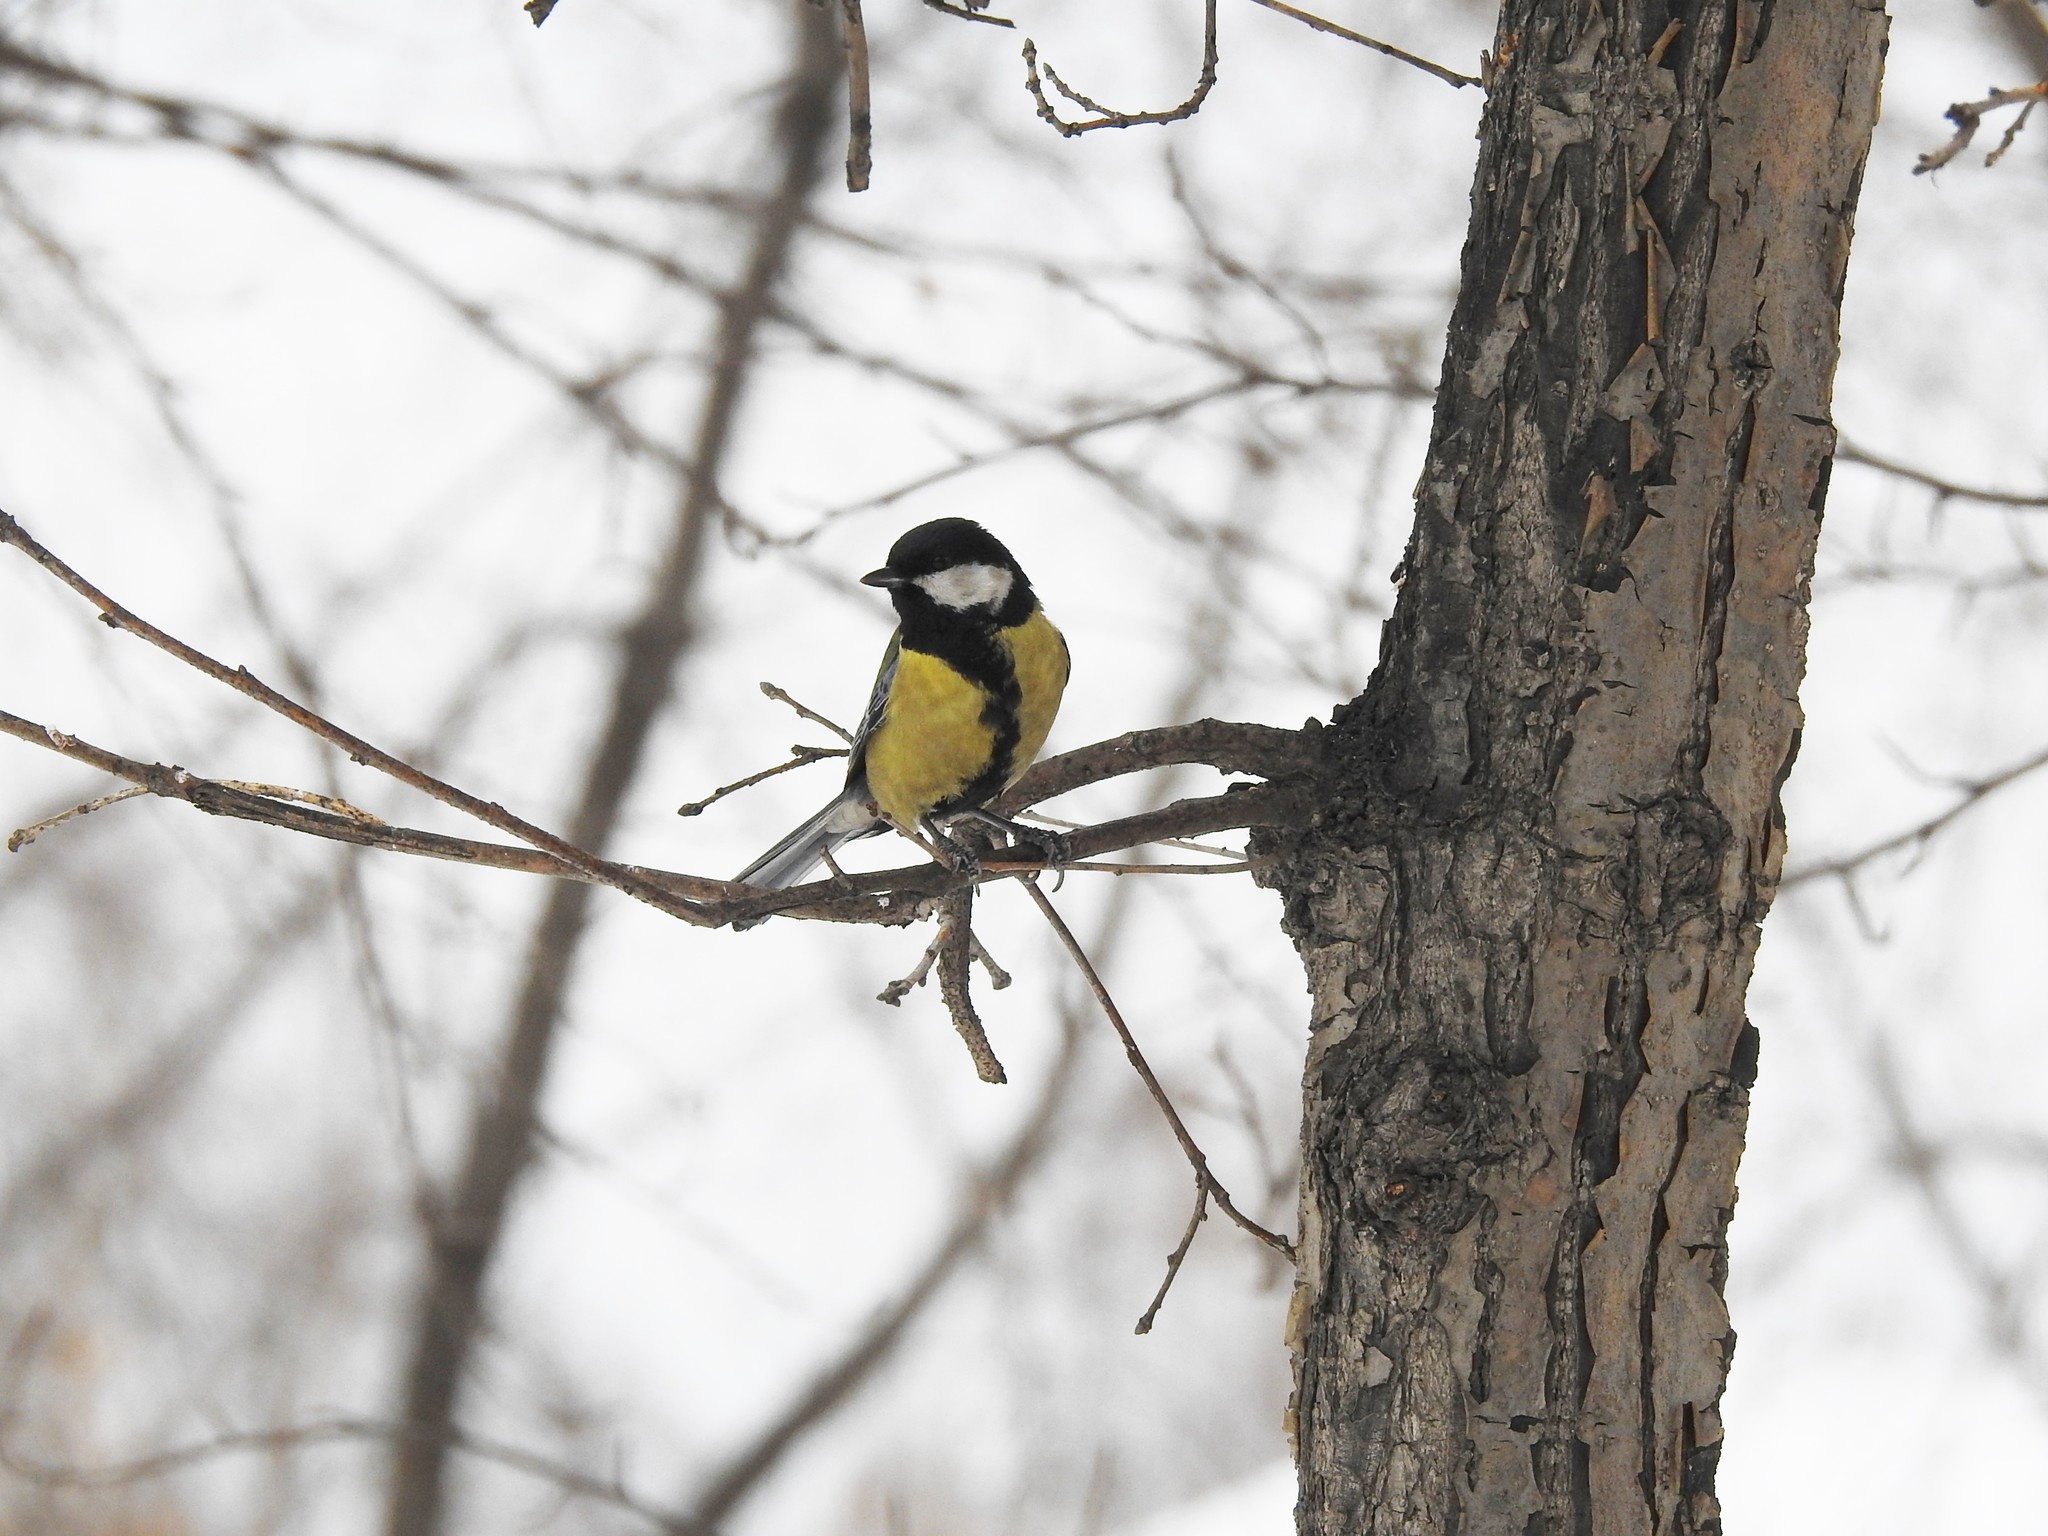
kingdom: Animalia
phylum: Chordata
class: Aves
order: Passeriformes
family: Paridae
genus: Parus
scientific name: Parus major
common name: Great tit
